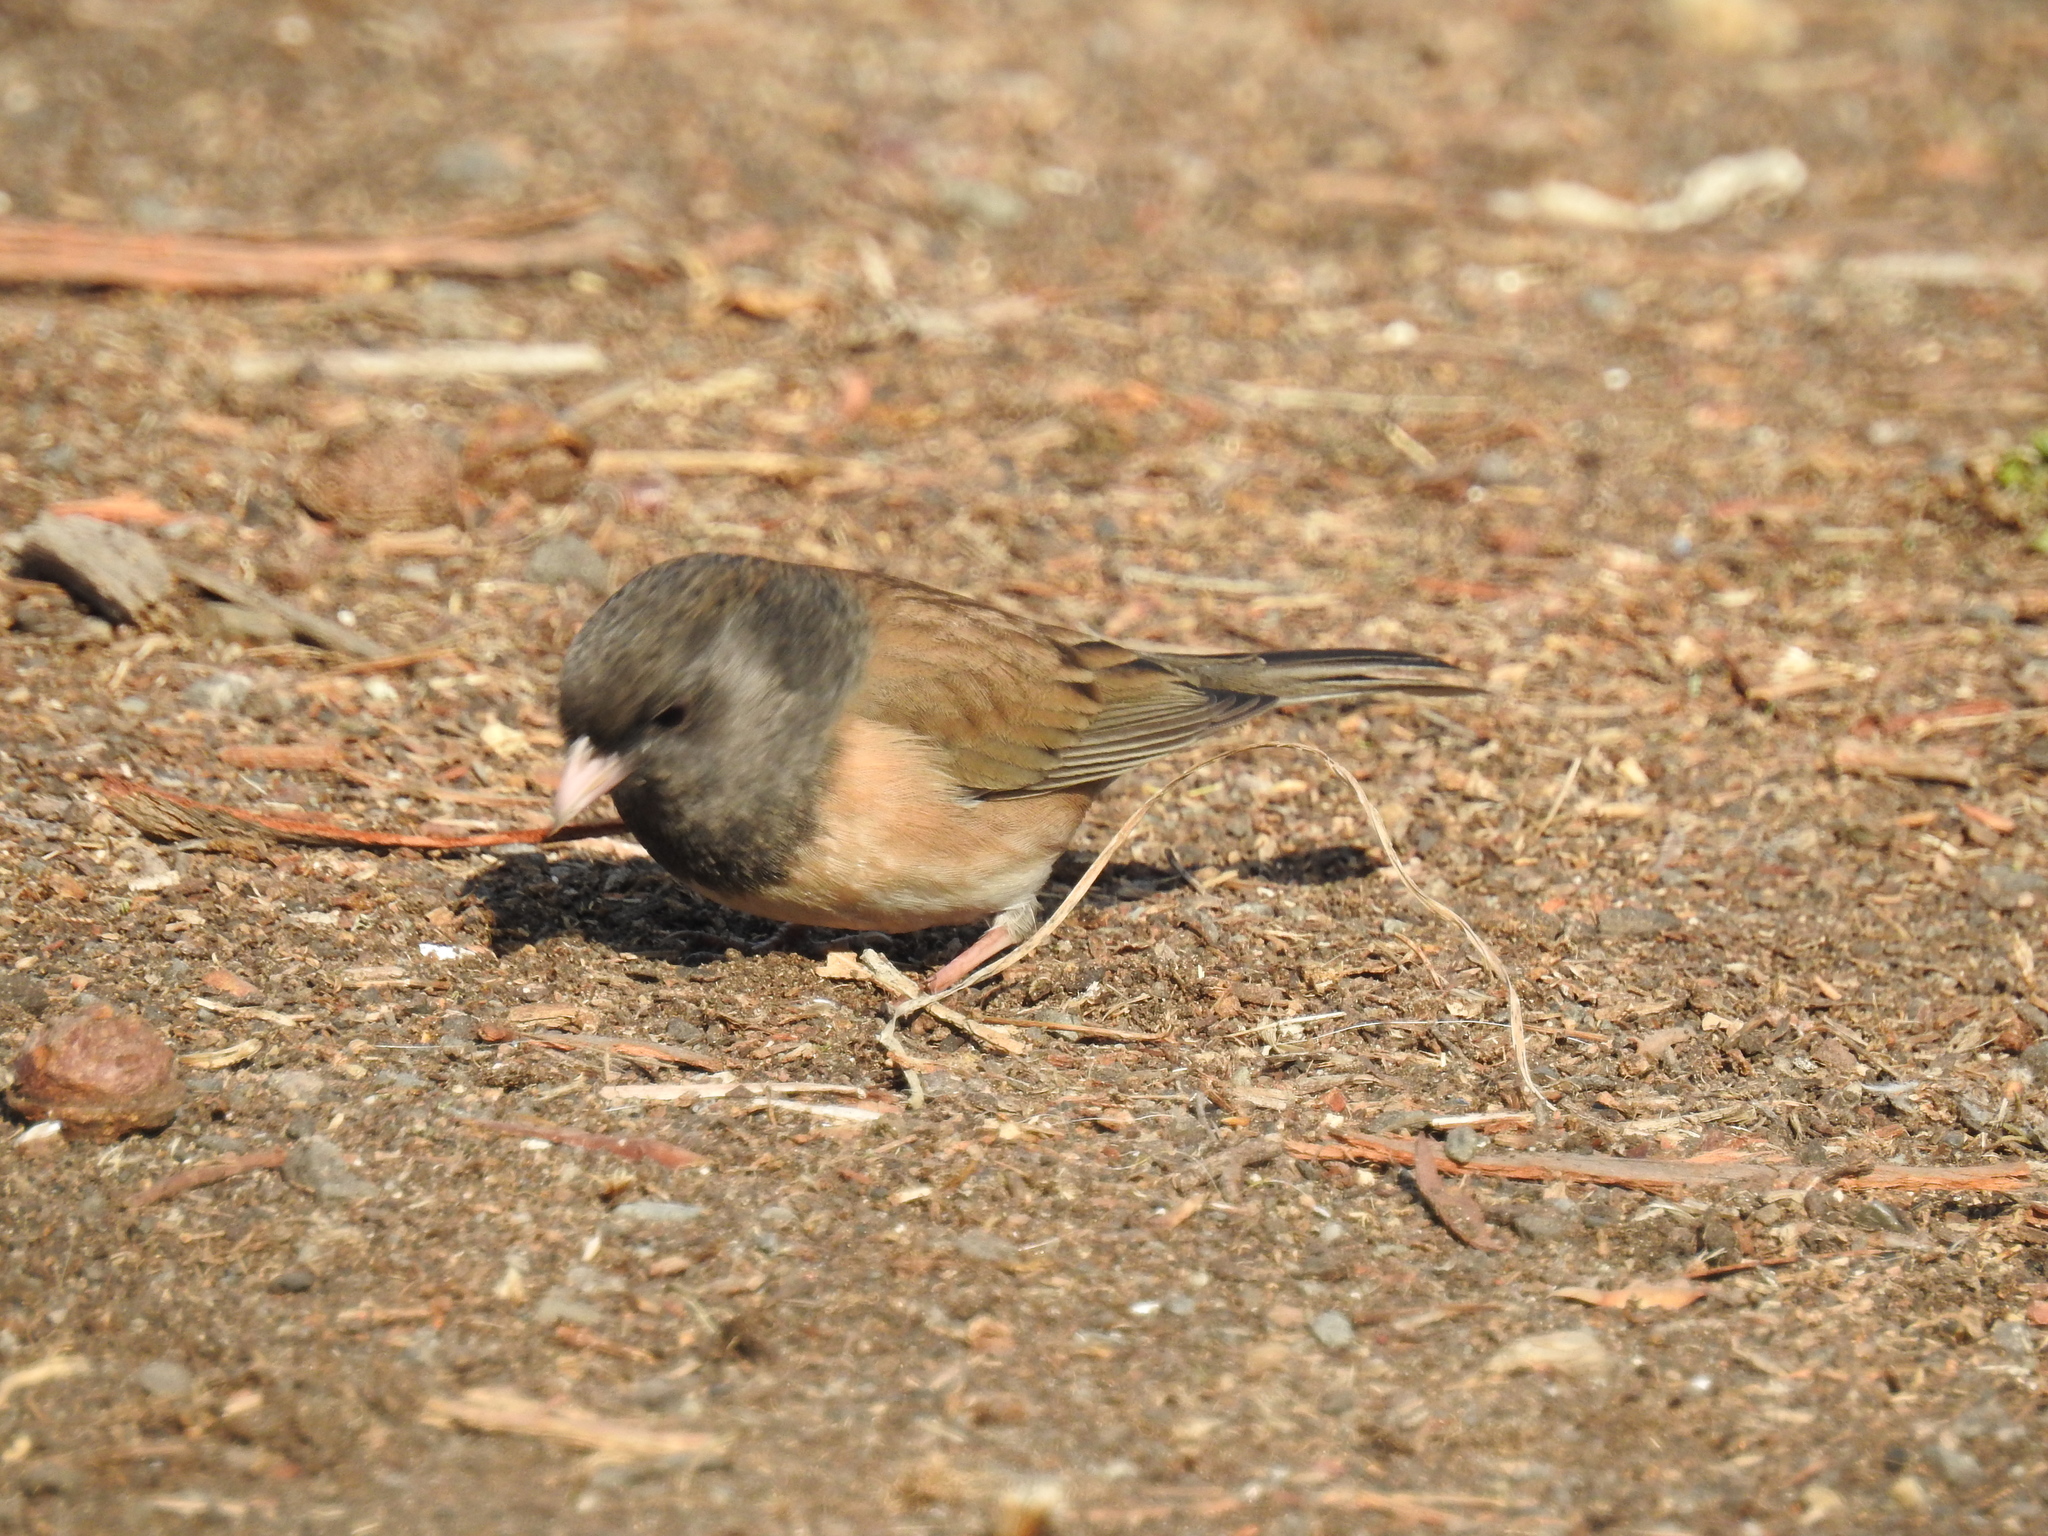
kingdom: Animalia
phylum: Chordata
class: Aves
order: Passeriformes
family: Passerellidae
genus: Junco
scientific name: Junco hyemalis
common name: Dark-eyed junco
